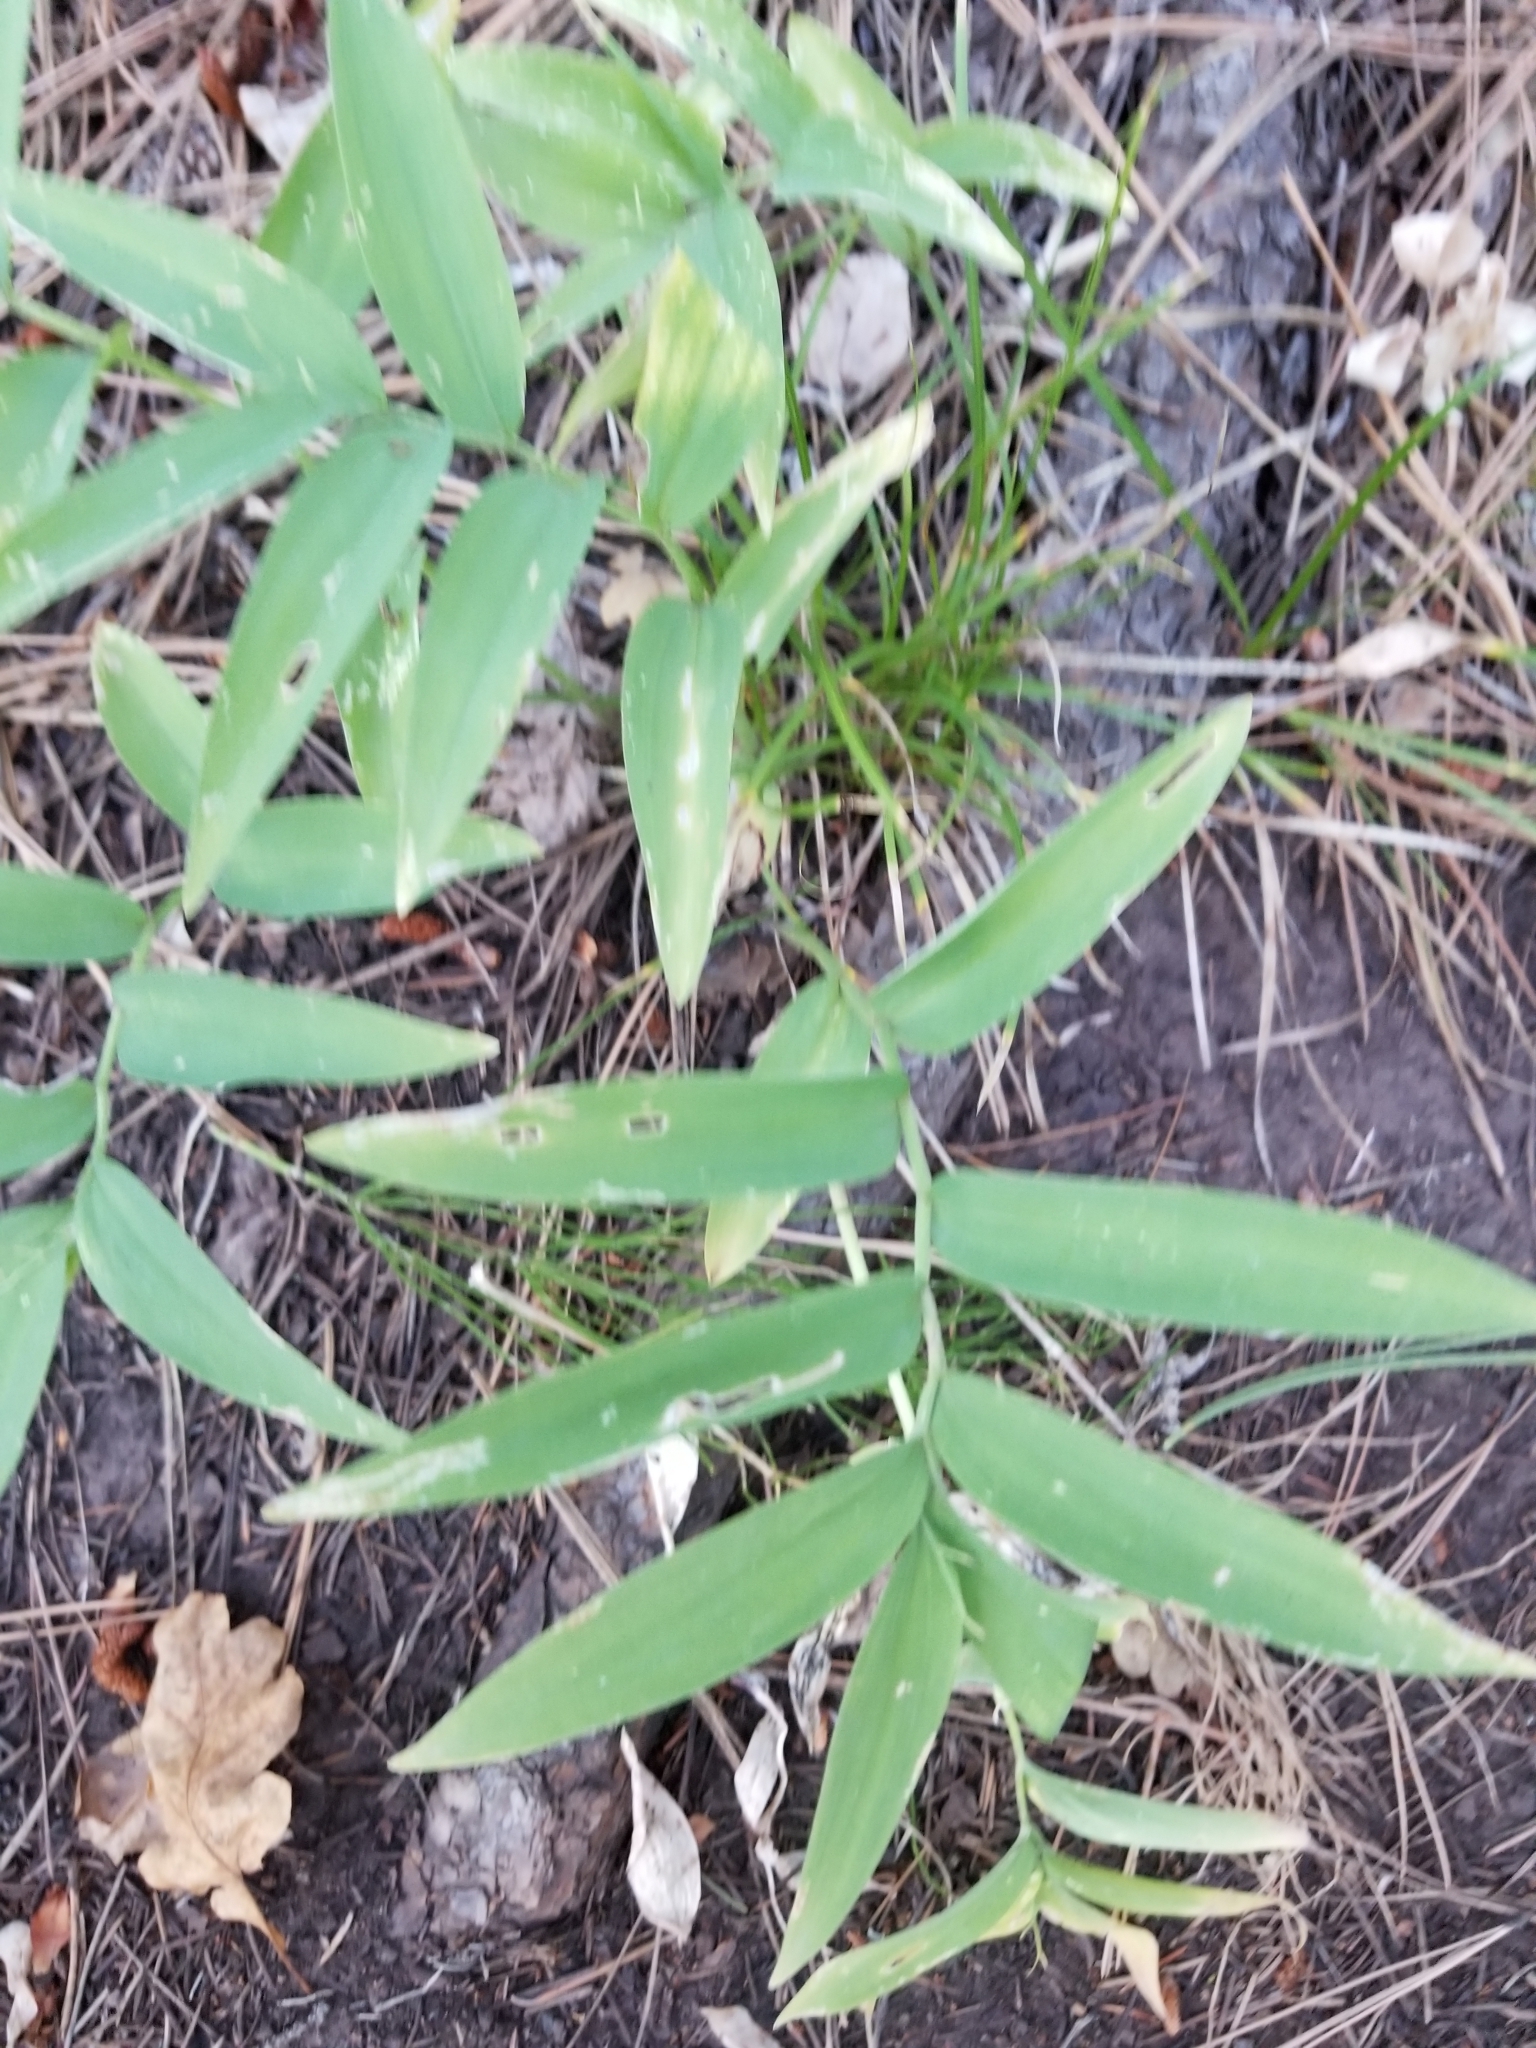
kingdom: Plantae
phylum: Tracheophyta
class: Liliopsida
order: Asparagales
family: Asparagaceae
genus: Maianthemum
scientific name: Maianthemum stellatum
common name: Little false solomon's seal
